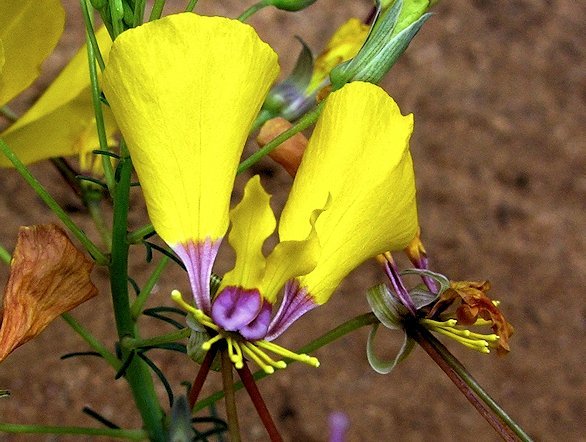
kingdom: Plantae
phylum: Tracheophyta
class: Magnoliopsida
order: Brassicales
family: Cleomaceae
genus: Coalisina
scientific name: Coalisina angustifolia
